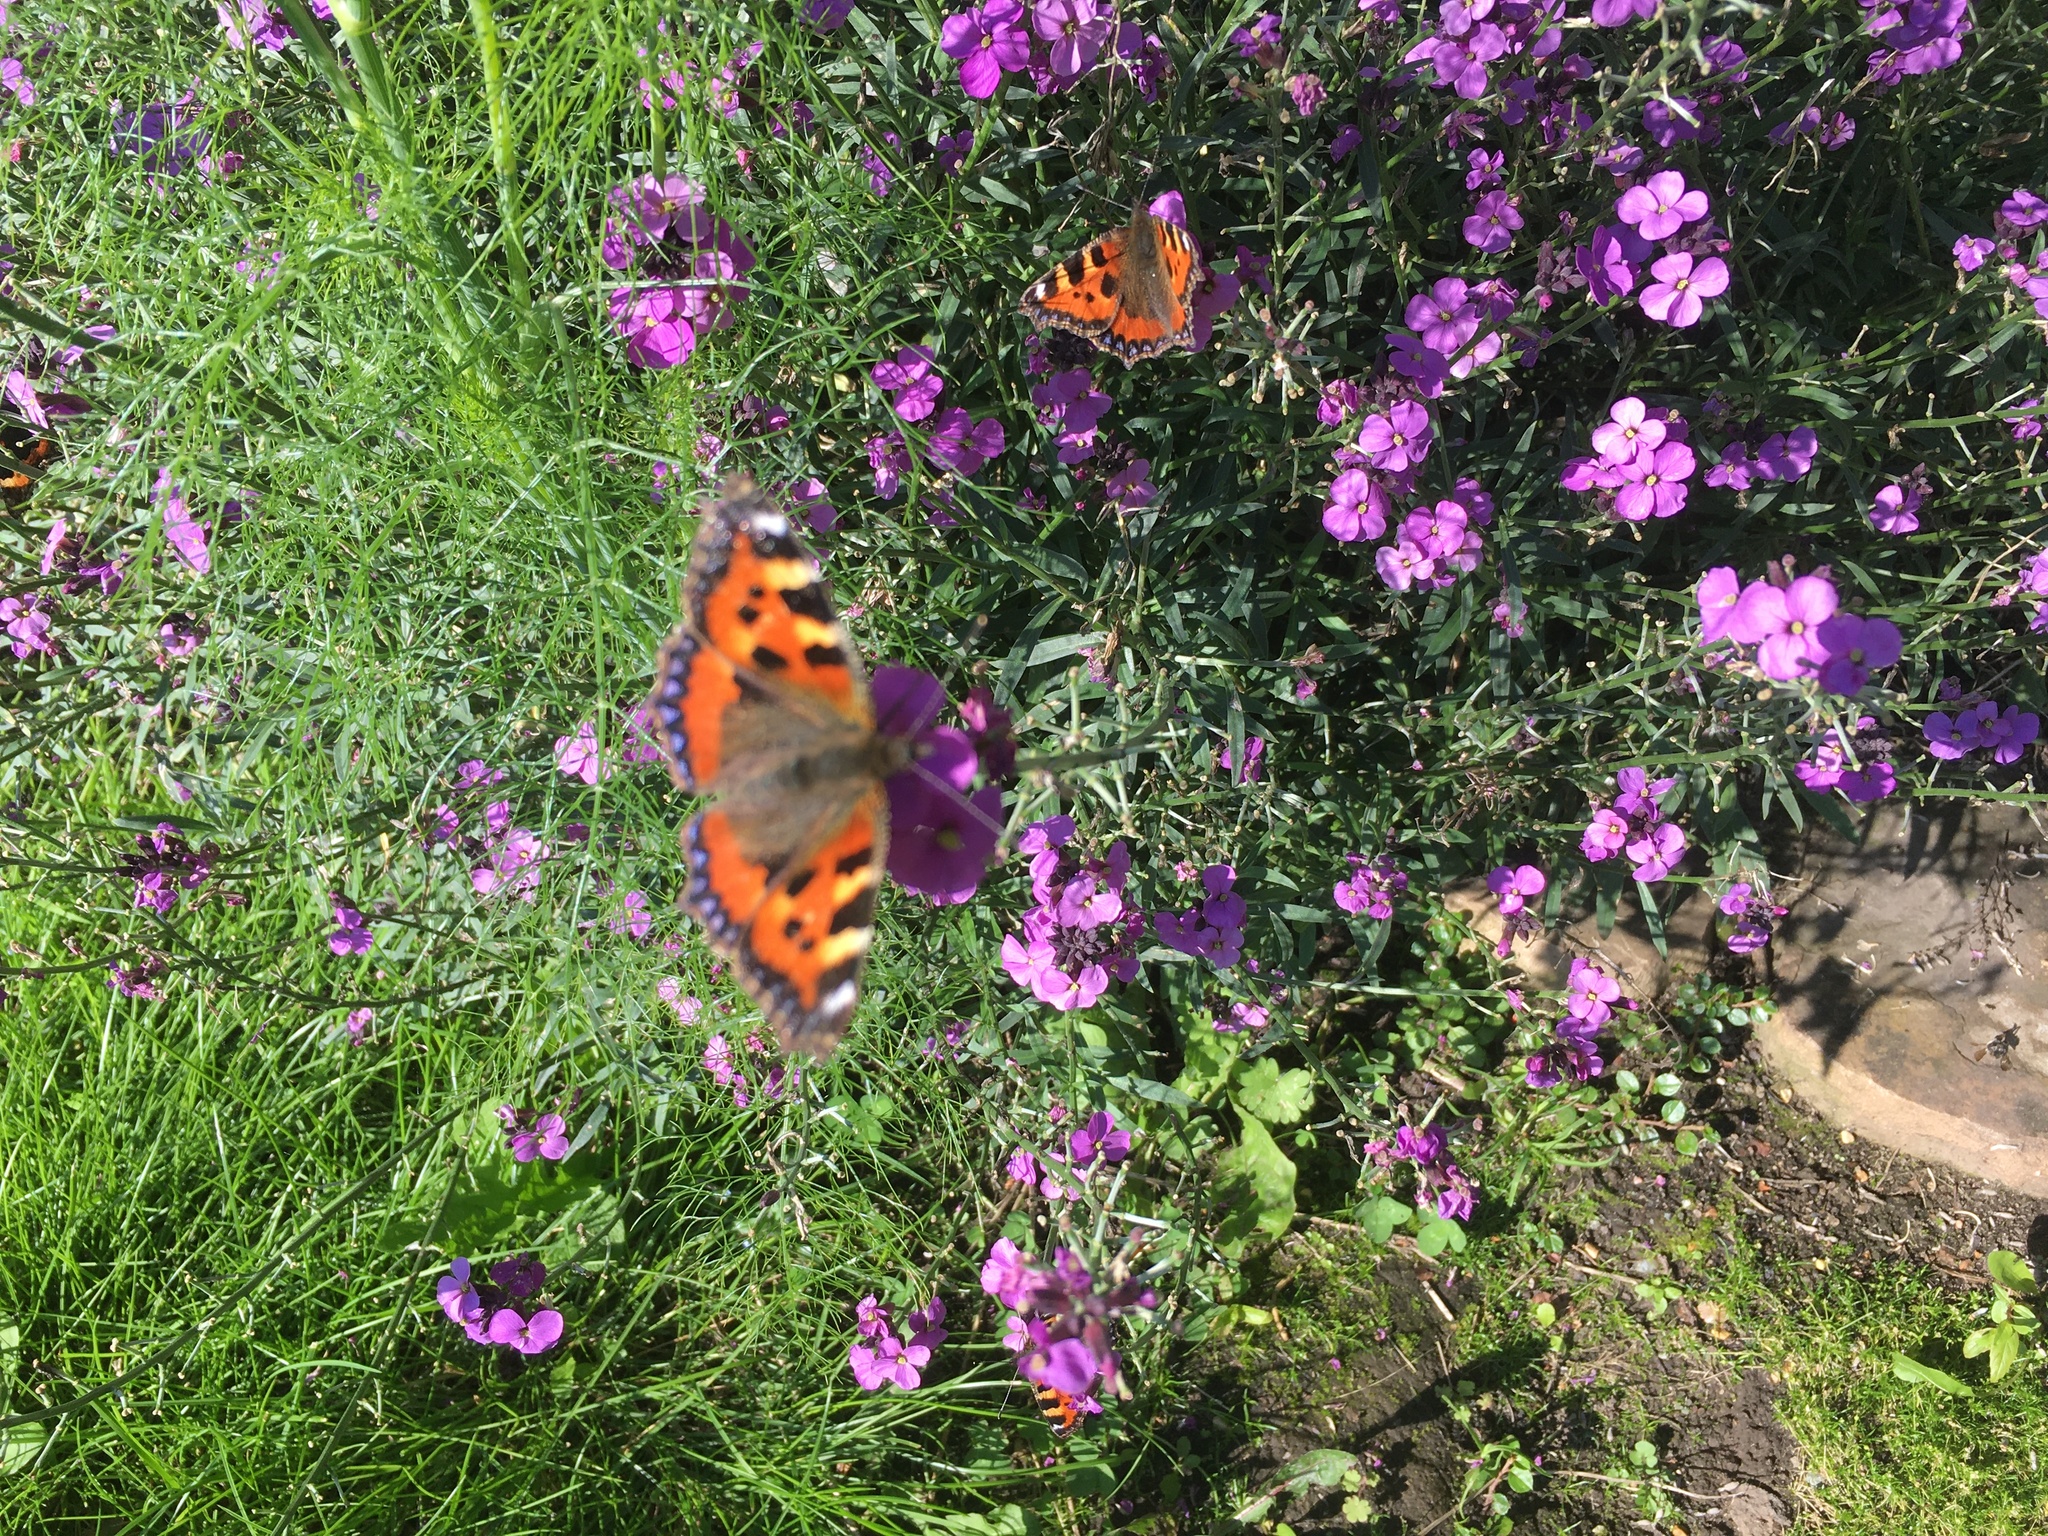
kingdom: Animalia
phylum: Arthropoda
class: Insecta
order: Lepidoptera
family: Nymphalidae
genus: Aglais
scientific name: Aglais urticae
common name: Small tortoiseshell
